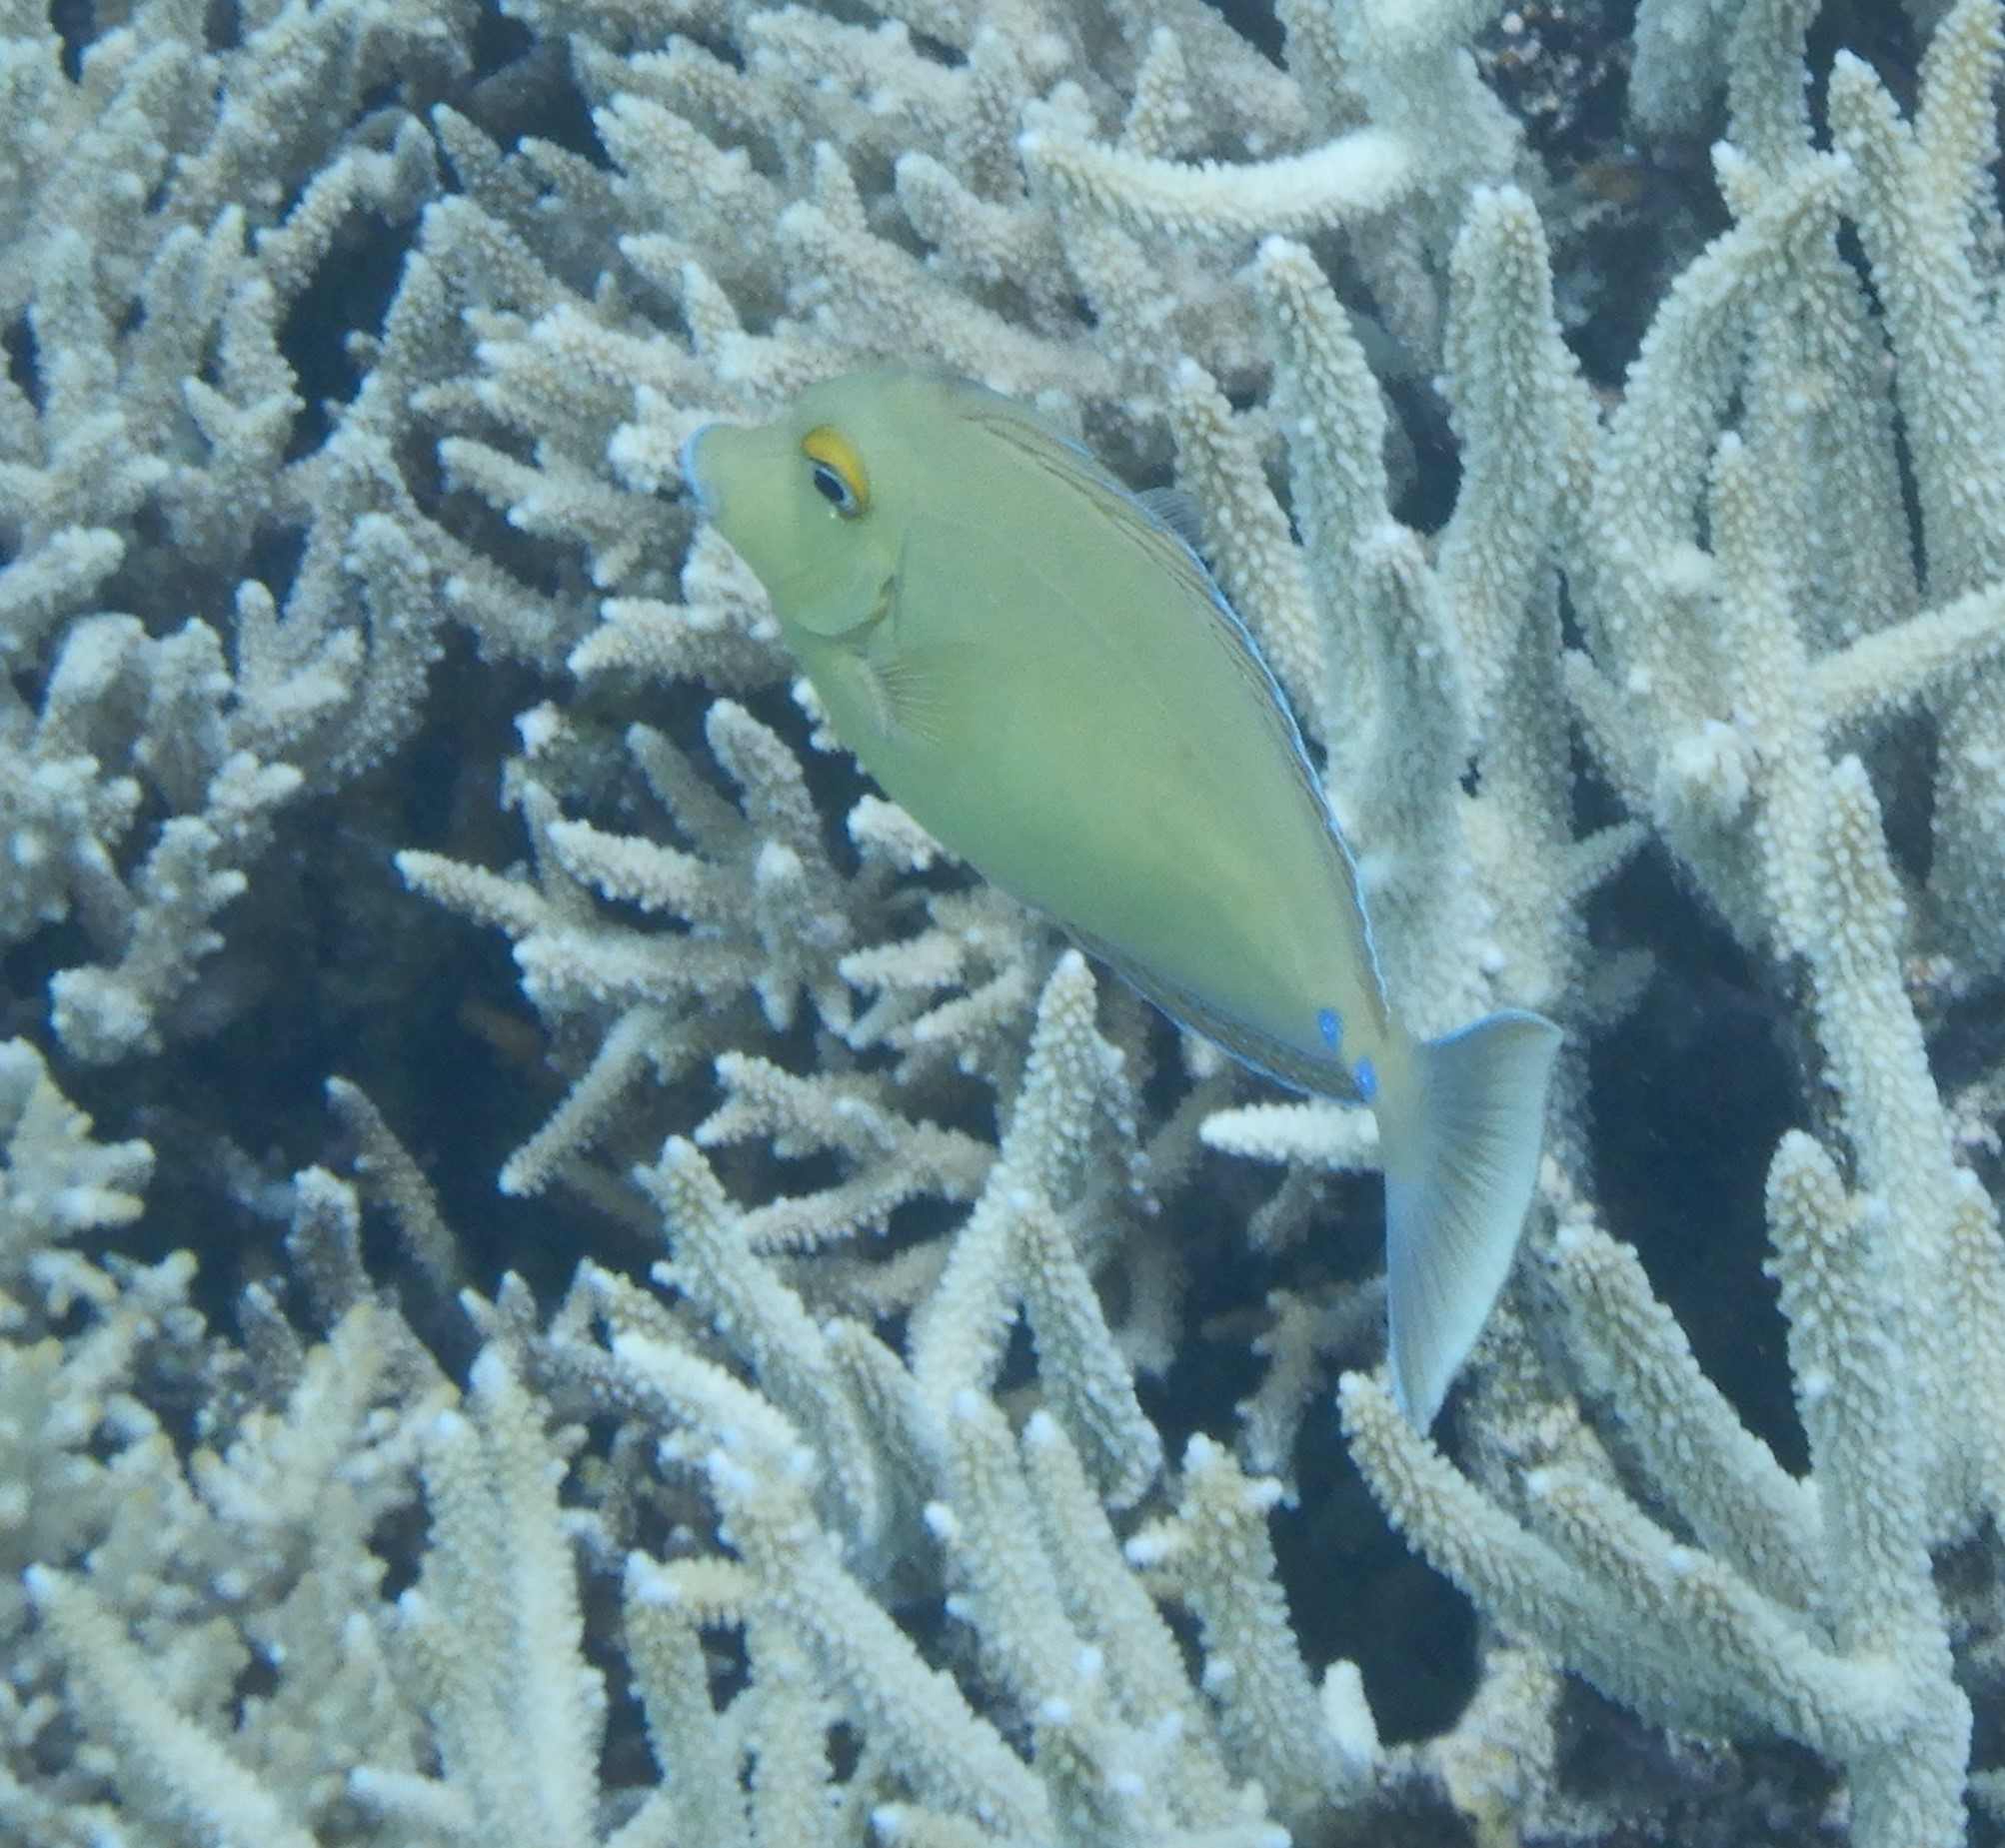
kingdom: Animalia
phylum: Chordata
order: Perciformes
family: Acanthuridae
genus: Naso
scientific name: Naso unicornis
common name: Bluespine unicornfish
